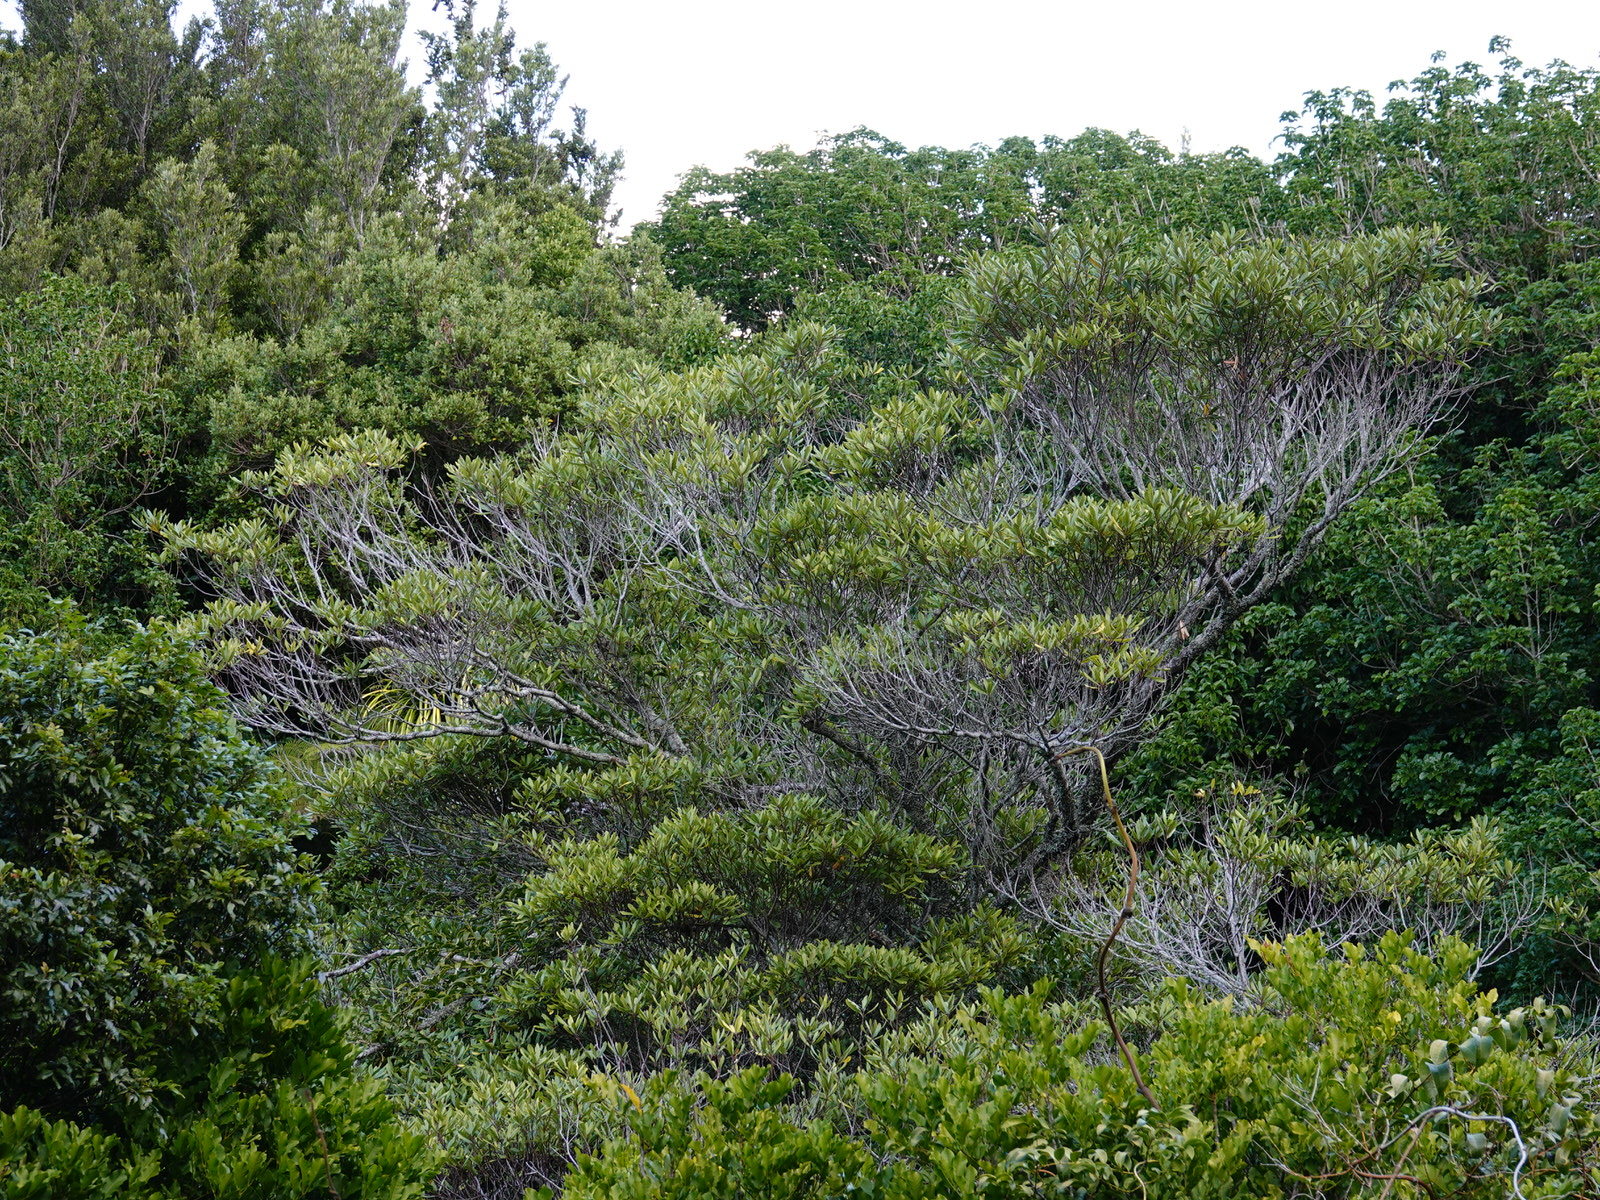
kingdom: Plantae
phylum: Tracheophyta
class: Magnoliopsida
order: Oxalidales
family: Elaeocarpaceae
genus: Elaeocarpus
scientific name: Elaeocarpus dentatus
